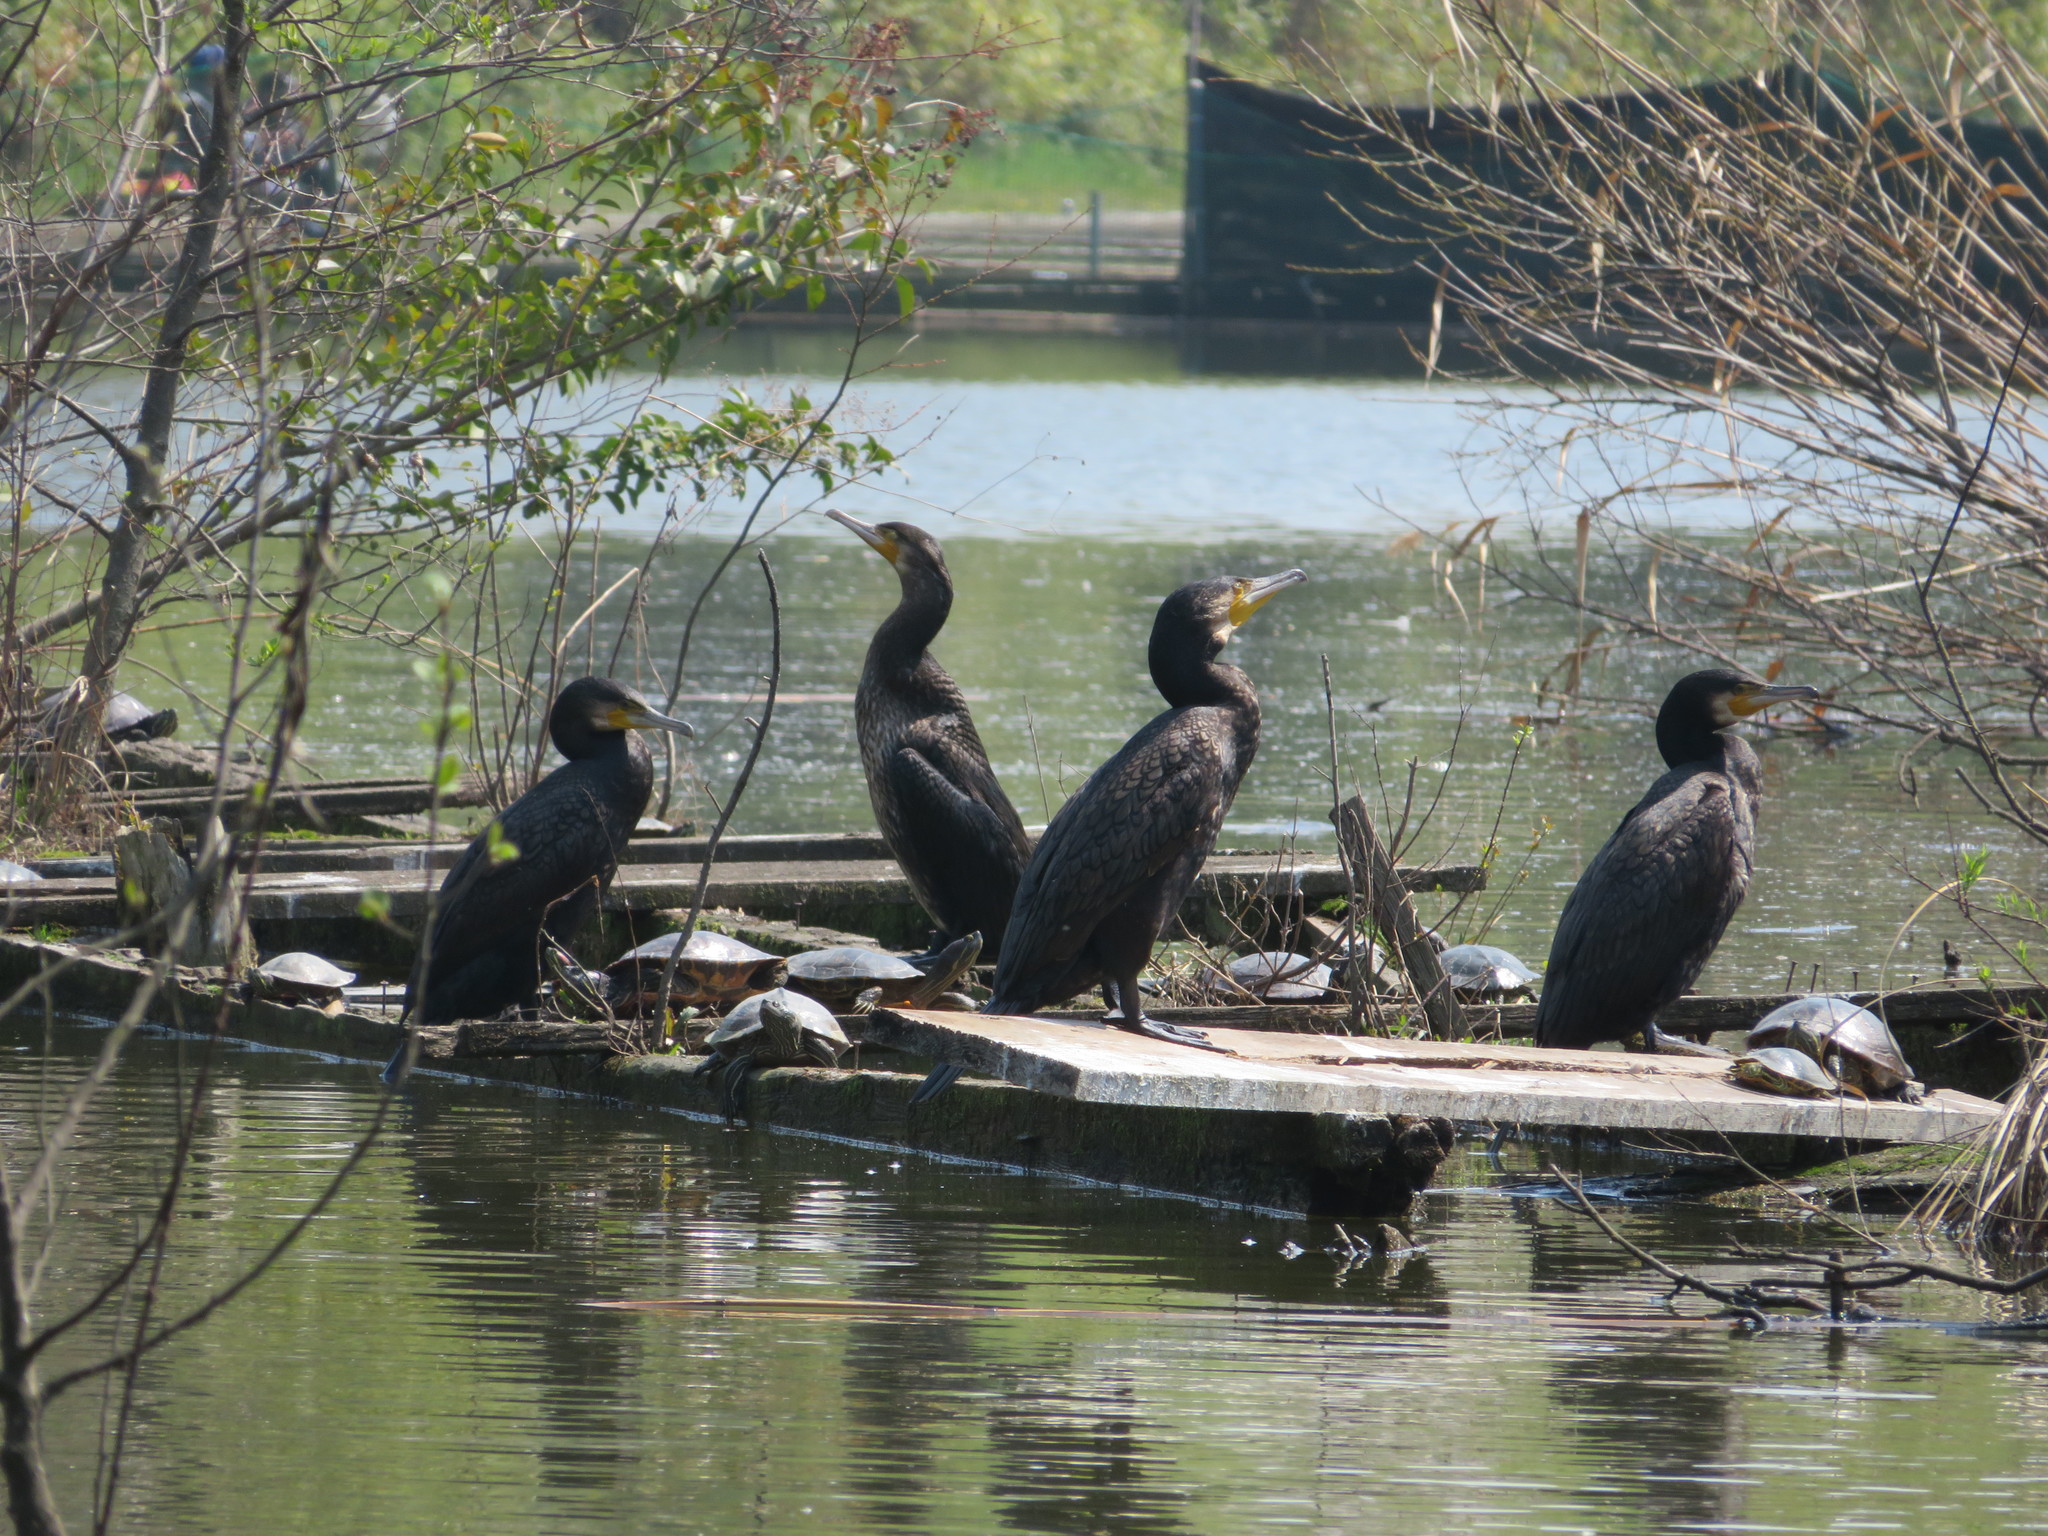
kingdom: Animalia
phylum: Chordata
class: Aves
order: Suliformes
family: Phalacrocoracidae
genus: Phalacrocorax
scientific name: Phalacrocorax carbo
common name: Great cormorant
